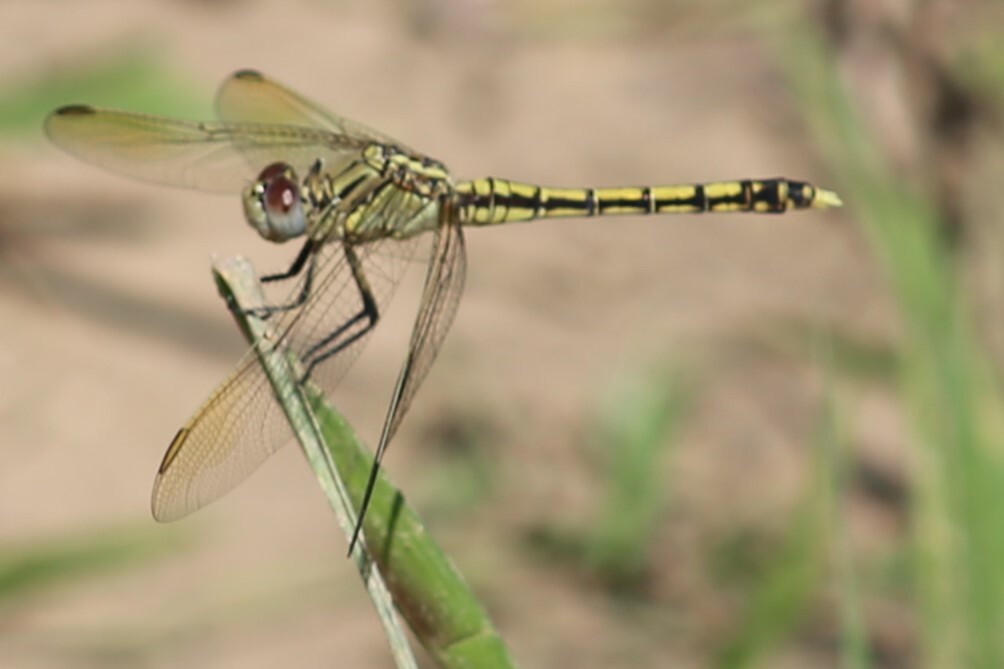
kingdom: Animalia
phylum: Arthropoda
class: Insecta
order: Odonata
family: Libellulidae
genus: Orthetrum
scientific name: Orthetrum caledonicum
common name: Blue skimmer
